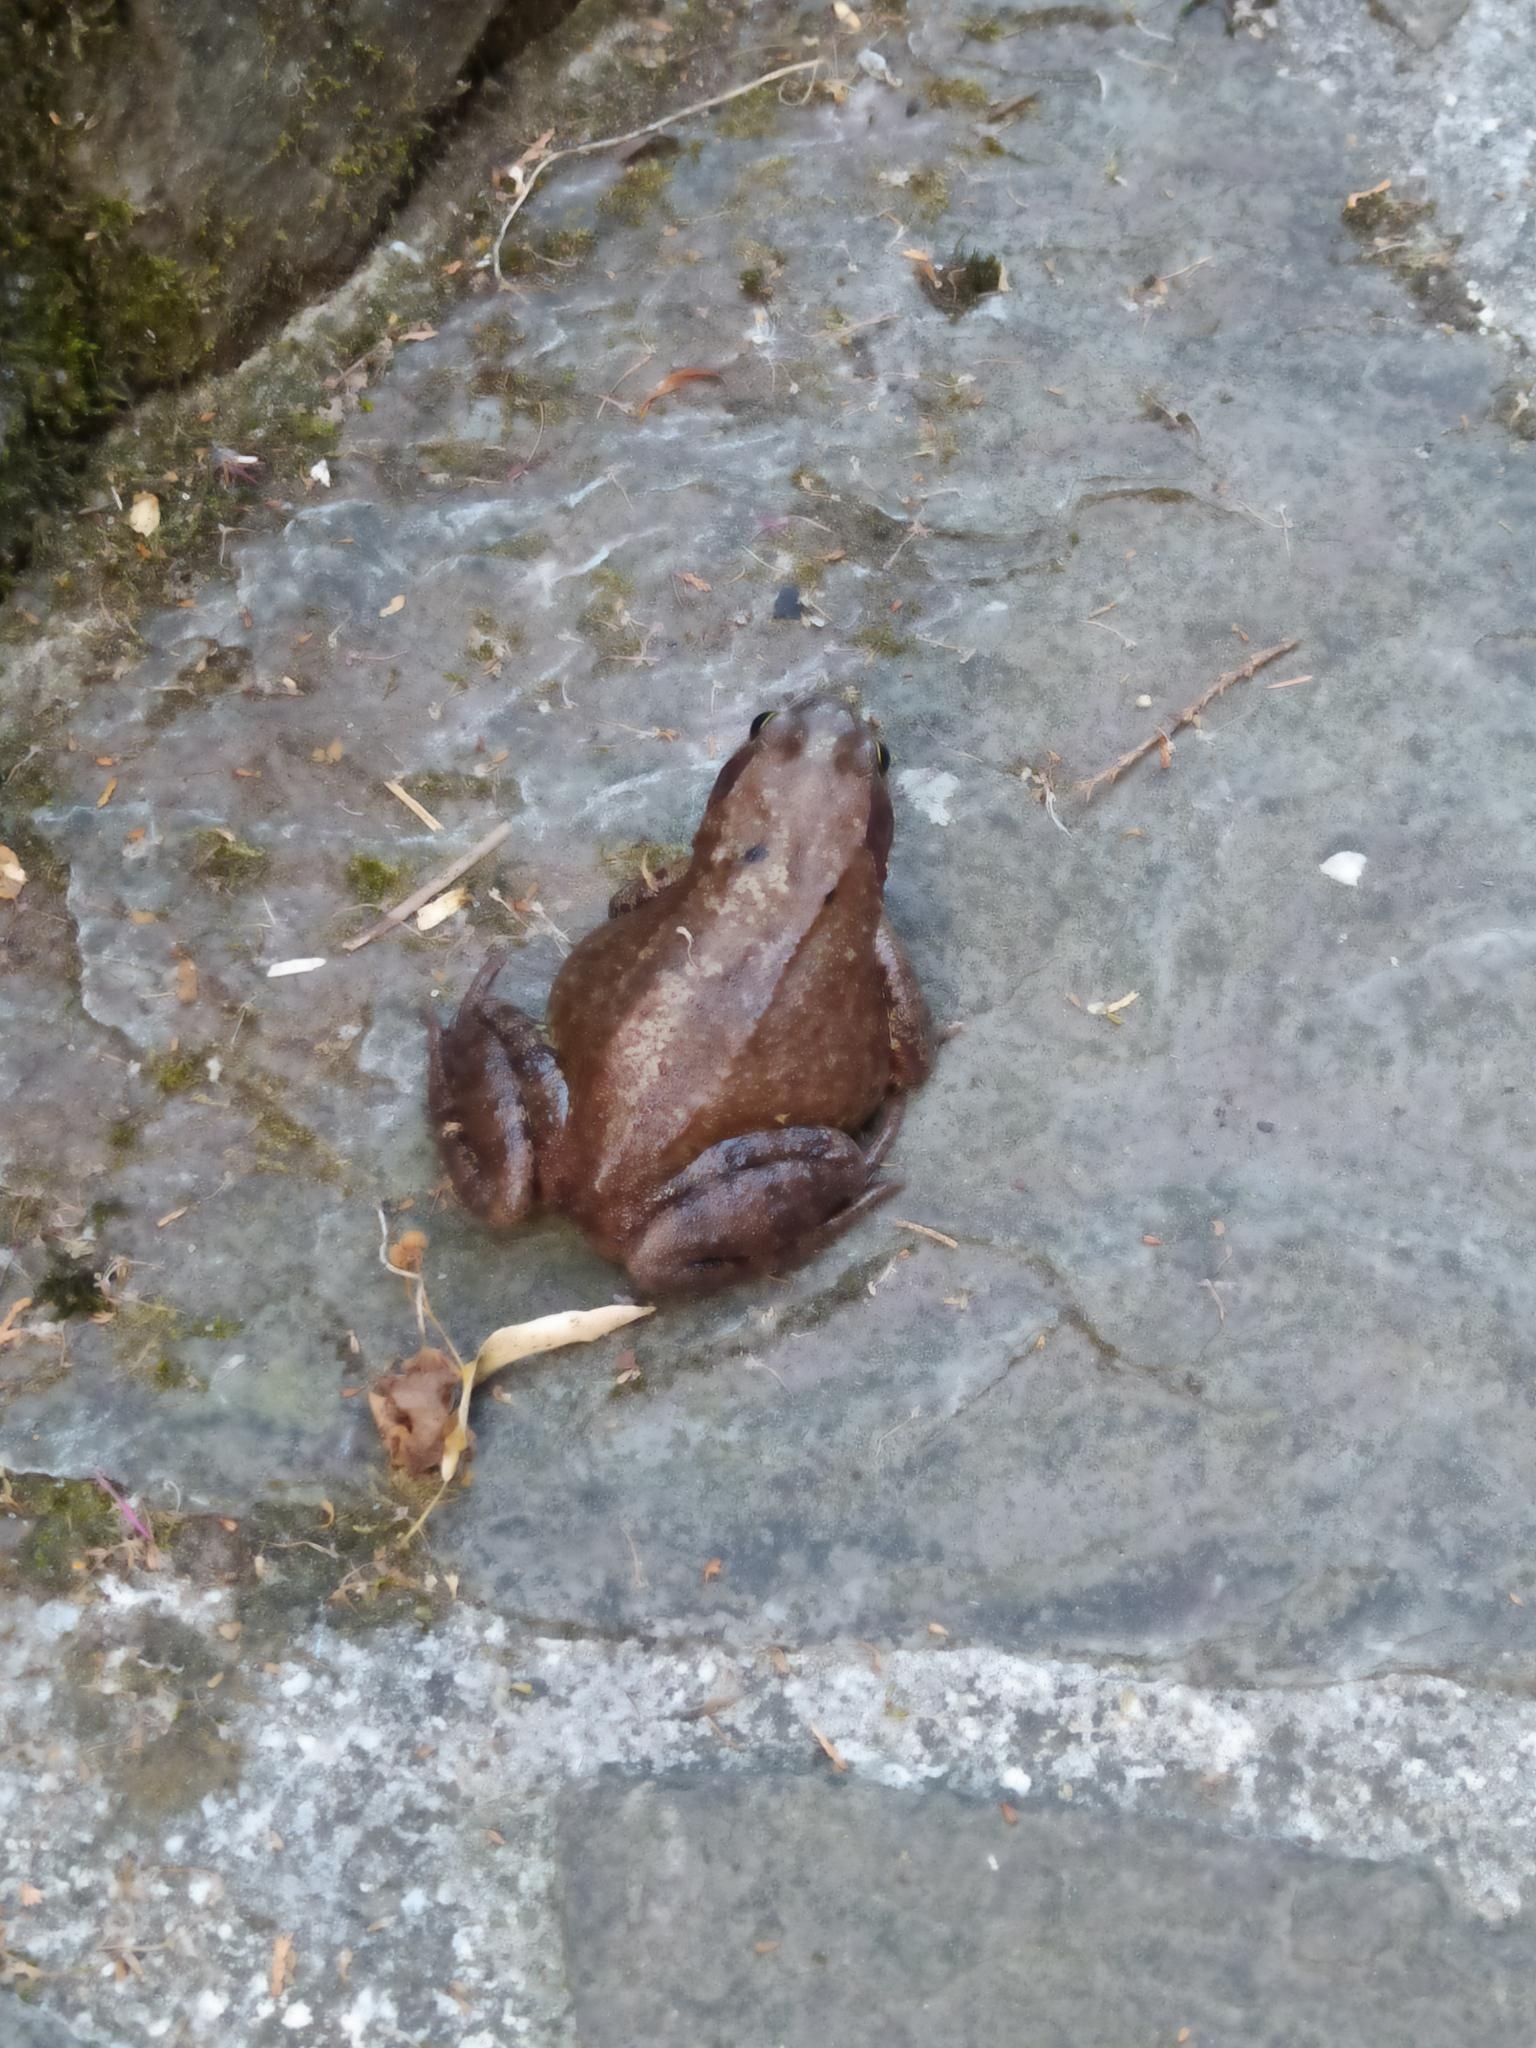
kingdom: Animalia
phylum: Chordata
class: Amphibia
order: Anura
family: Ranidae
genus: Rana
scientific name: Rana temporaria
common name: Common frog
